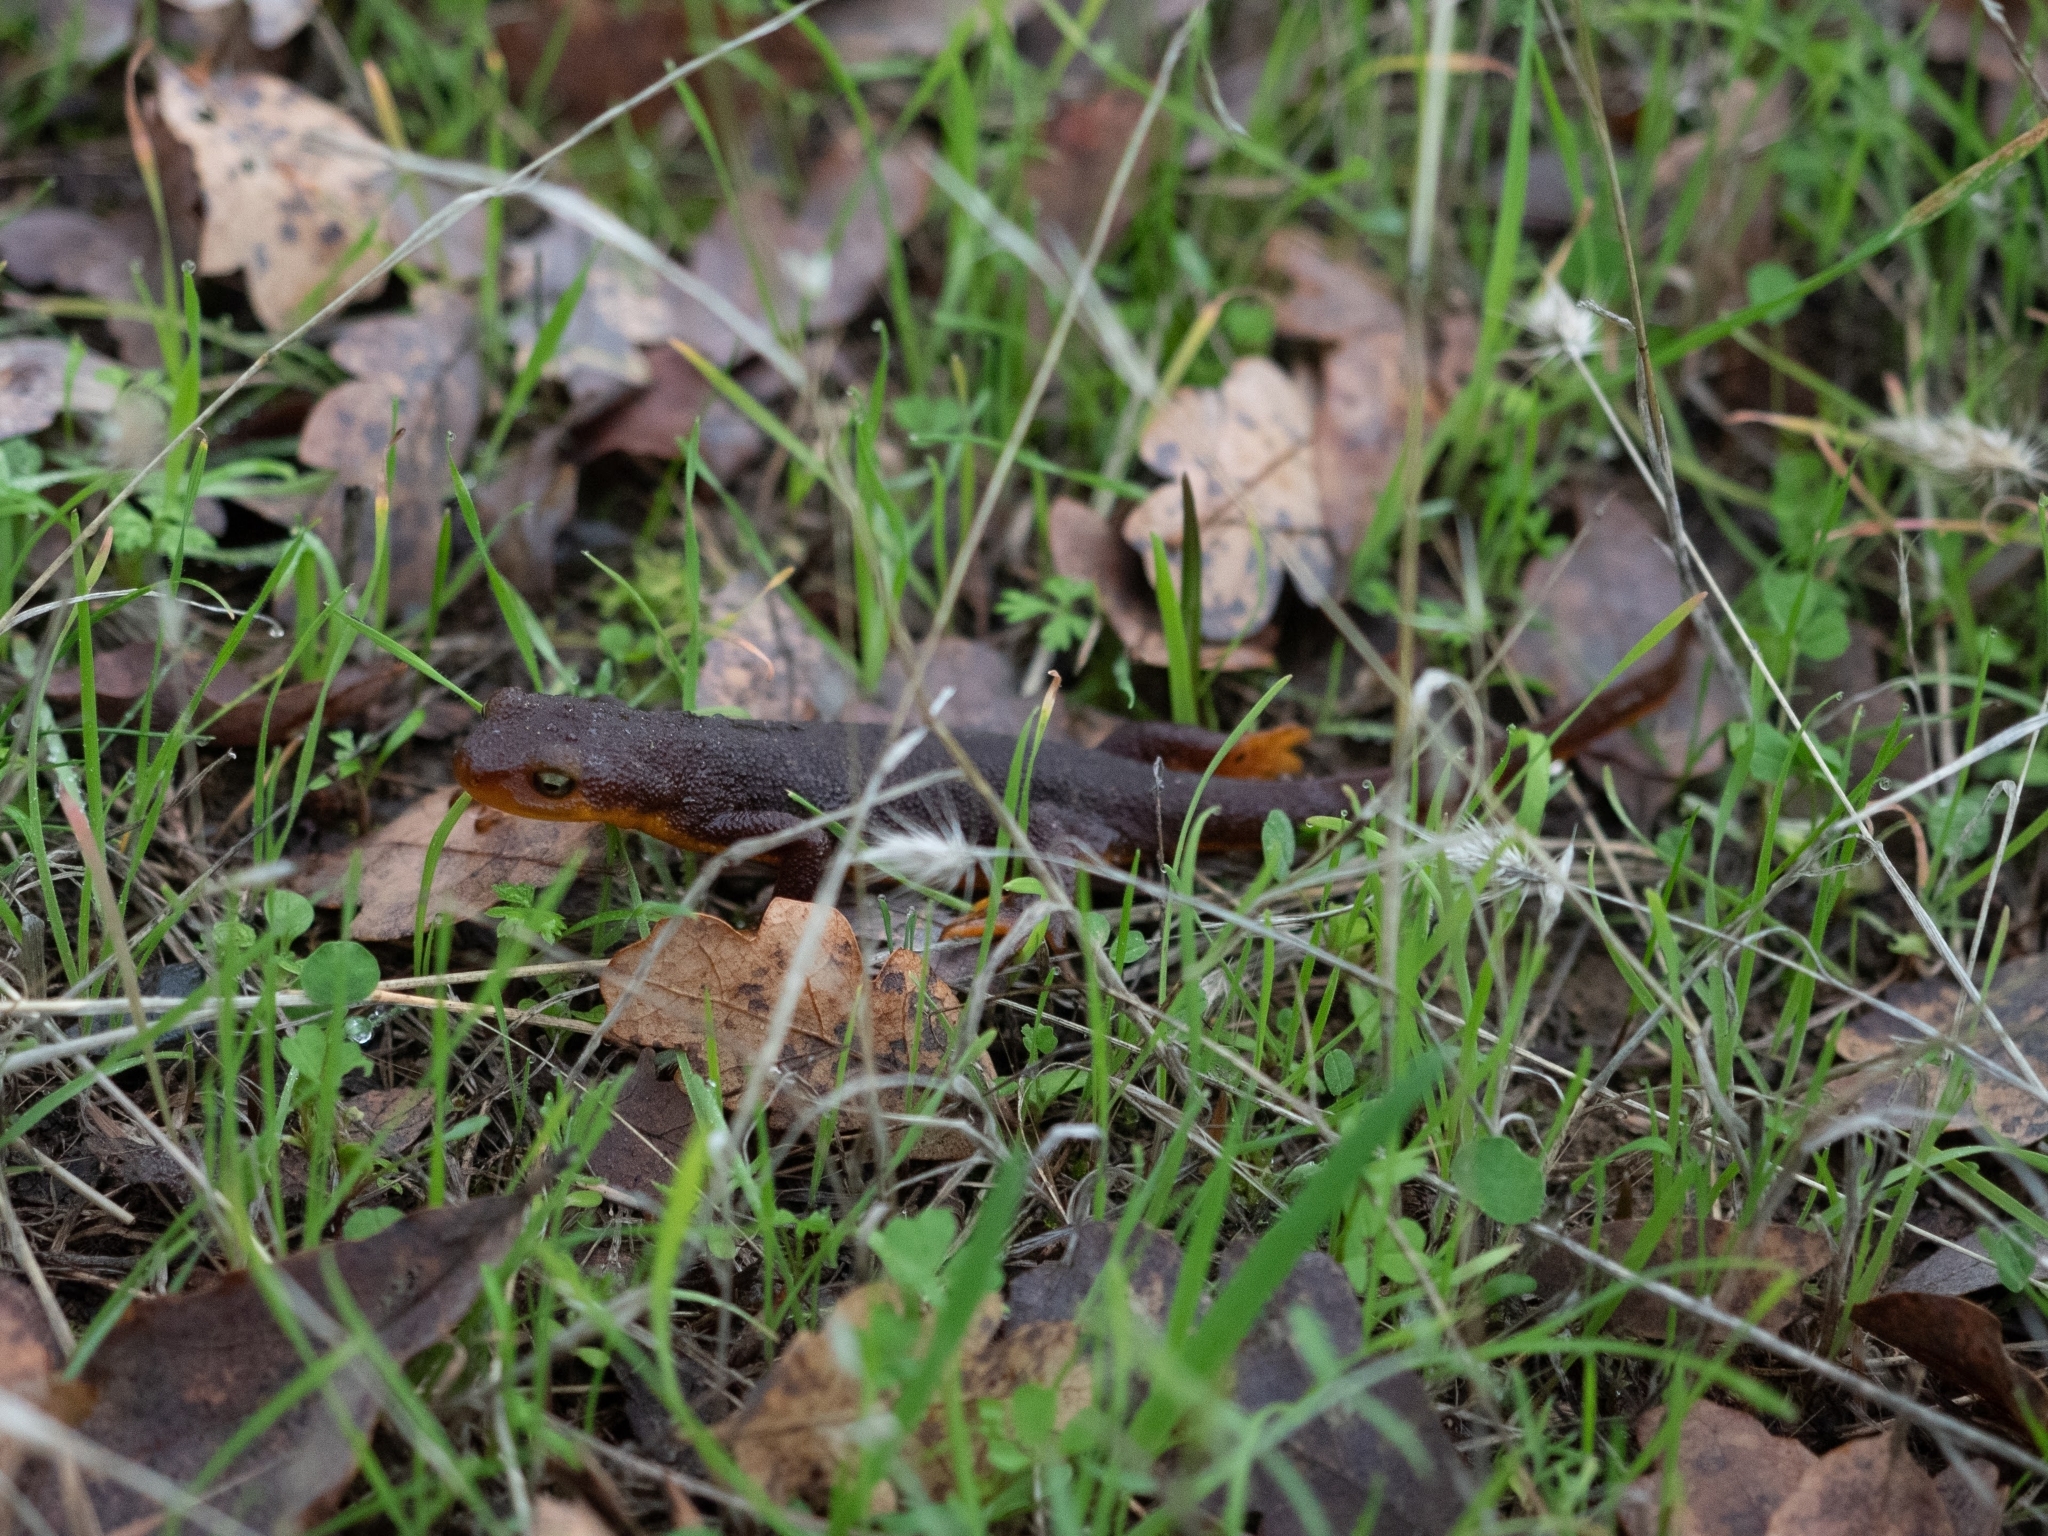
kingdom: Animalia
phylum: Chordata
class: Amphibia
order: Caudata
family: Salamandridae
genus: Taricha
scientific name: Taricha torosa
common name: California newt
